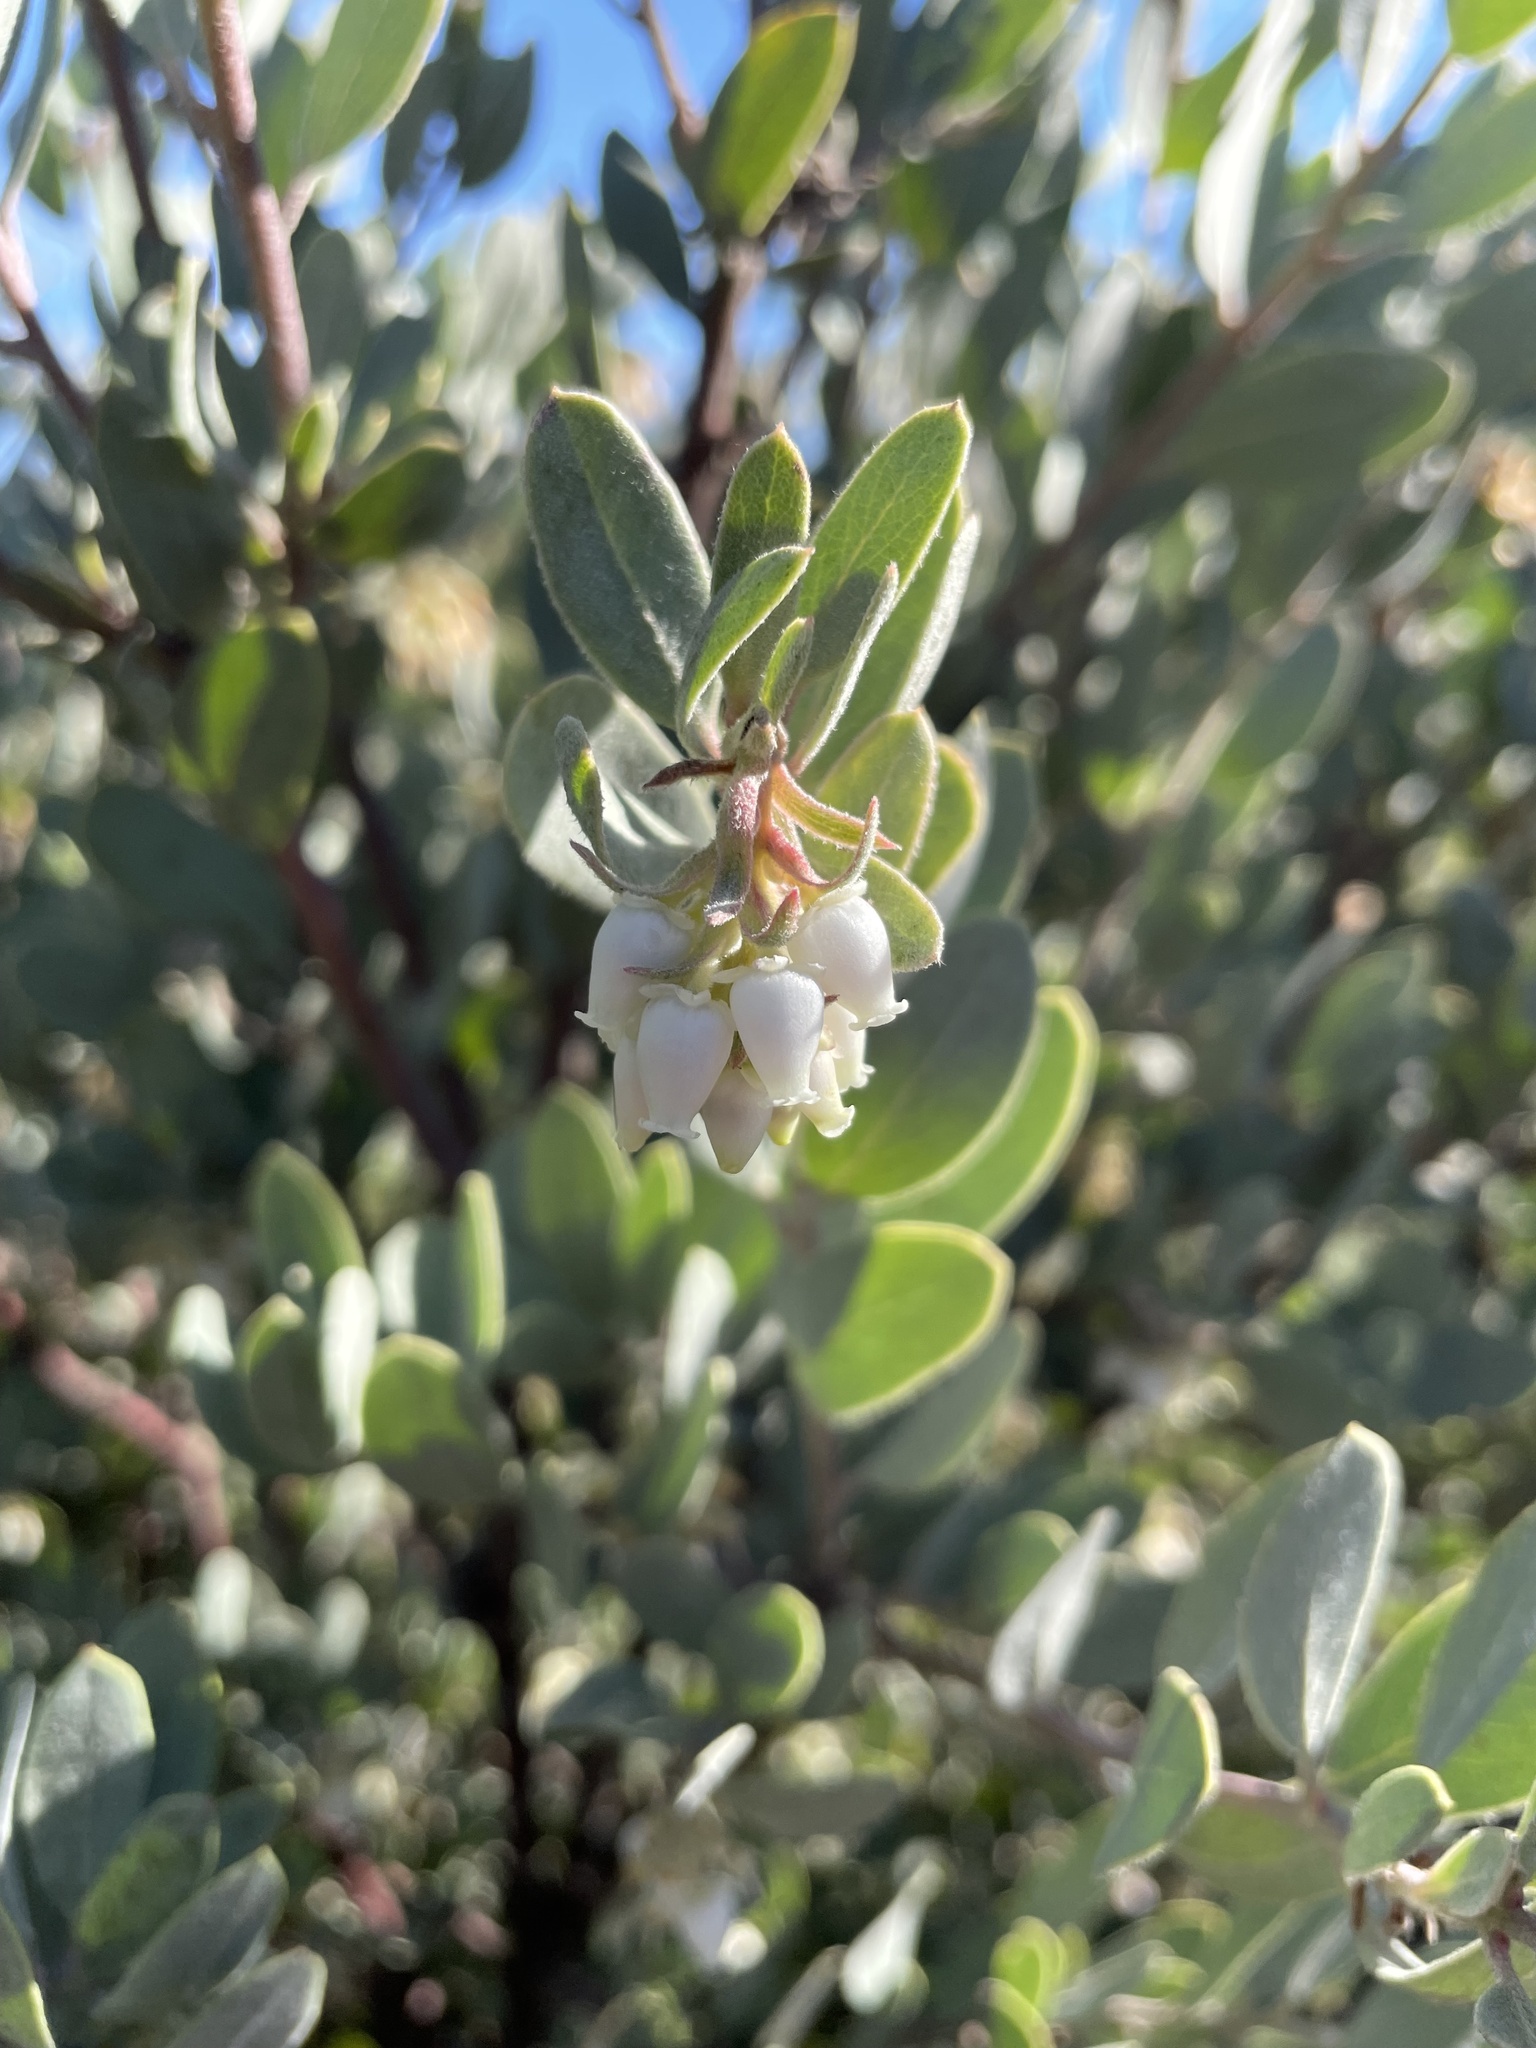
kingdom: Plantae
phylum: Tracheophyta
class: Magnoliopsida
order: Ericales
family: Ericaceae
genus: Arctostaphylos
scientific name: Arctostaphylos silvicola
